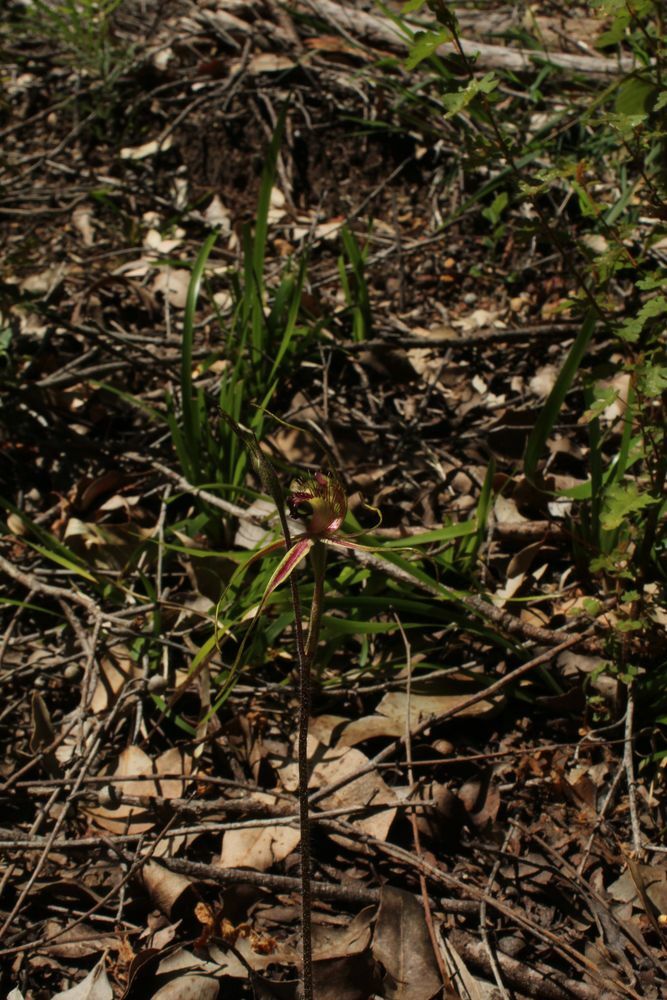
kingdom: Plantae
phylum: Tracheophyta
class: Liliopsida
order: Asparagales
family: Orchidaceae
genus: Caladenia
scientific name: Caladenia brownii
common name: Kari spider orchid
